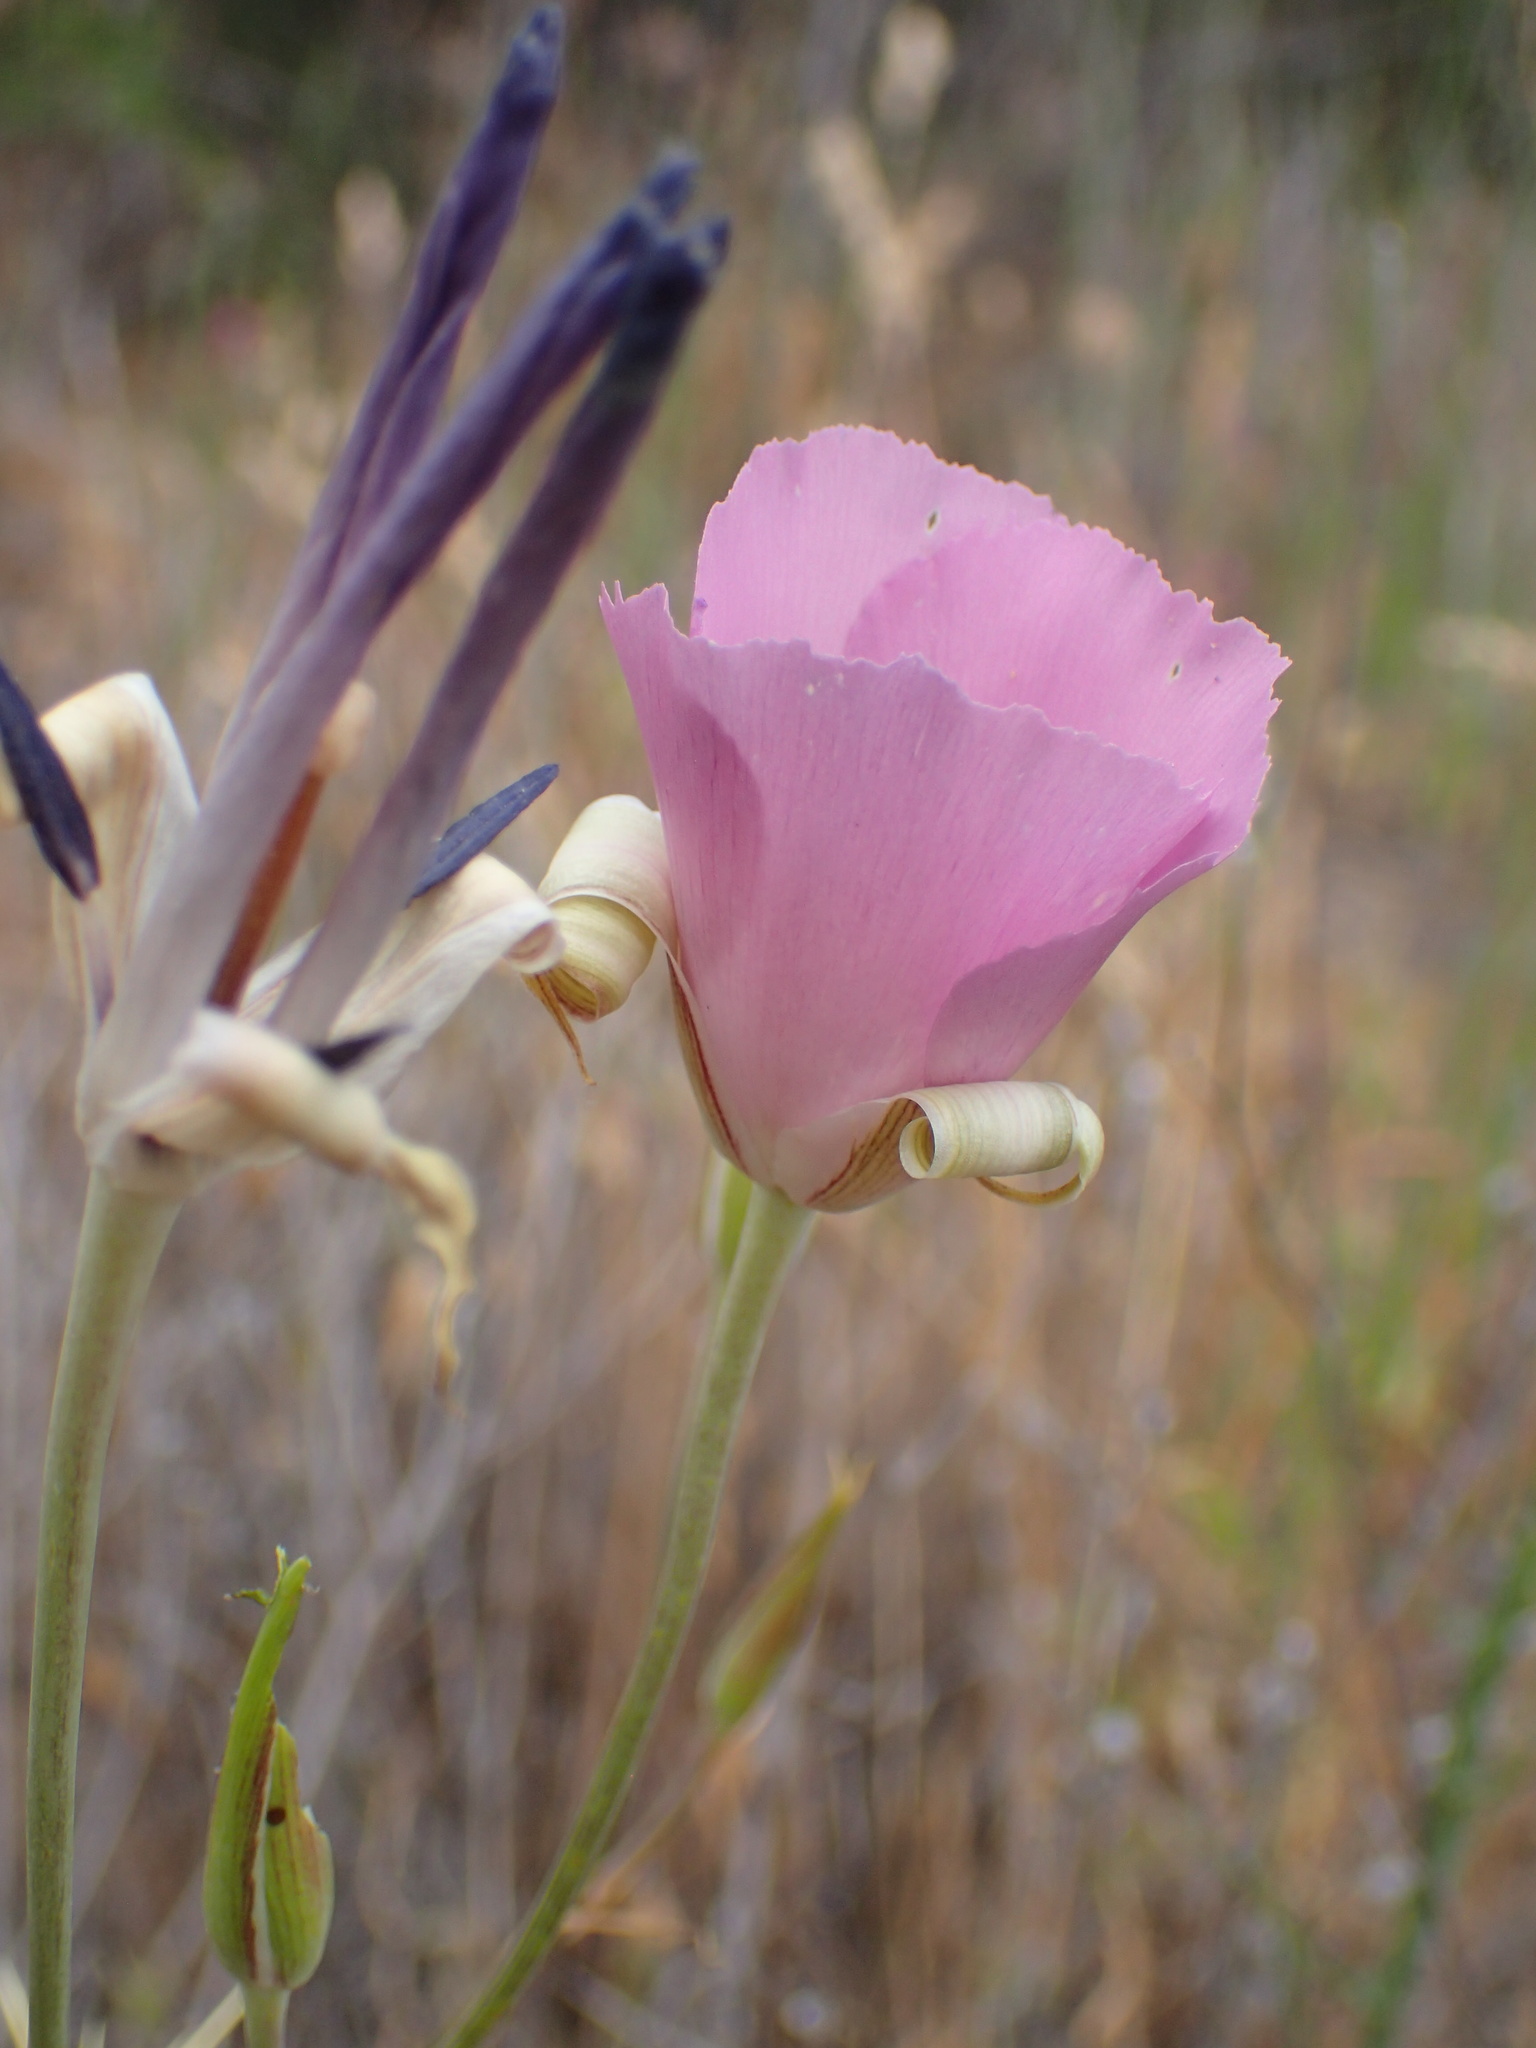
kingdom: Plantae
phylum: Tracheophyta
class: Liliopsida
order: Liliales
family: Liliaceae
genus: Calochortus
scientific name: Calochortus splendens
